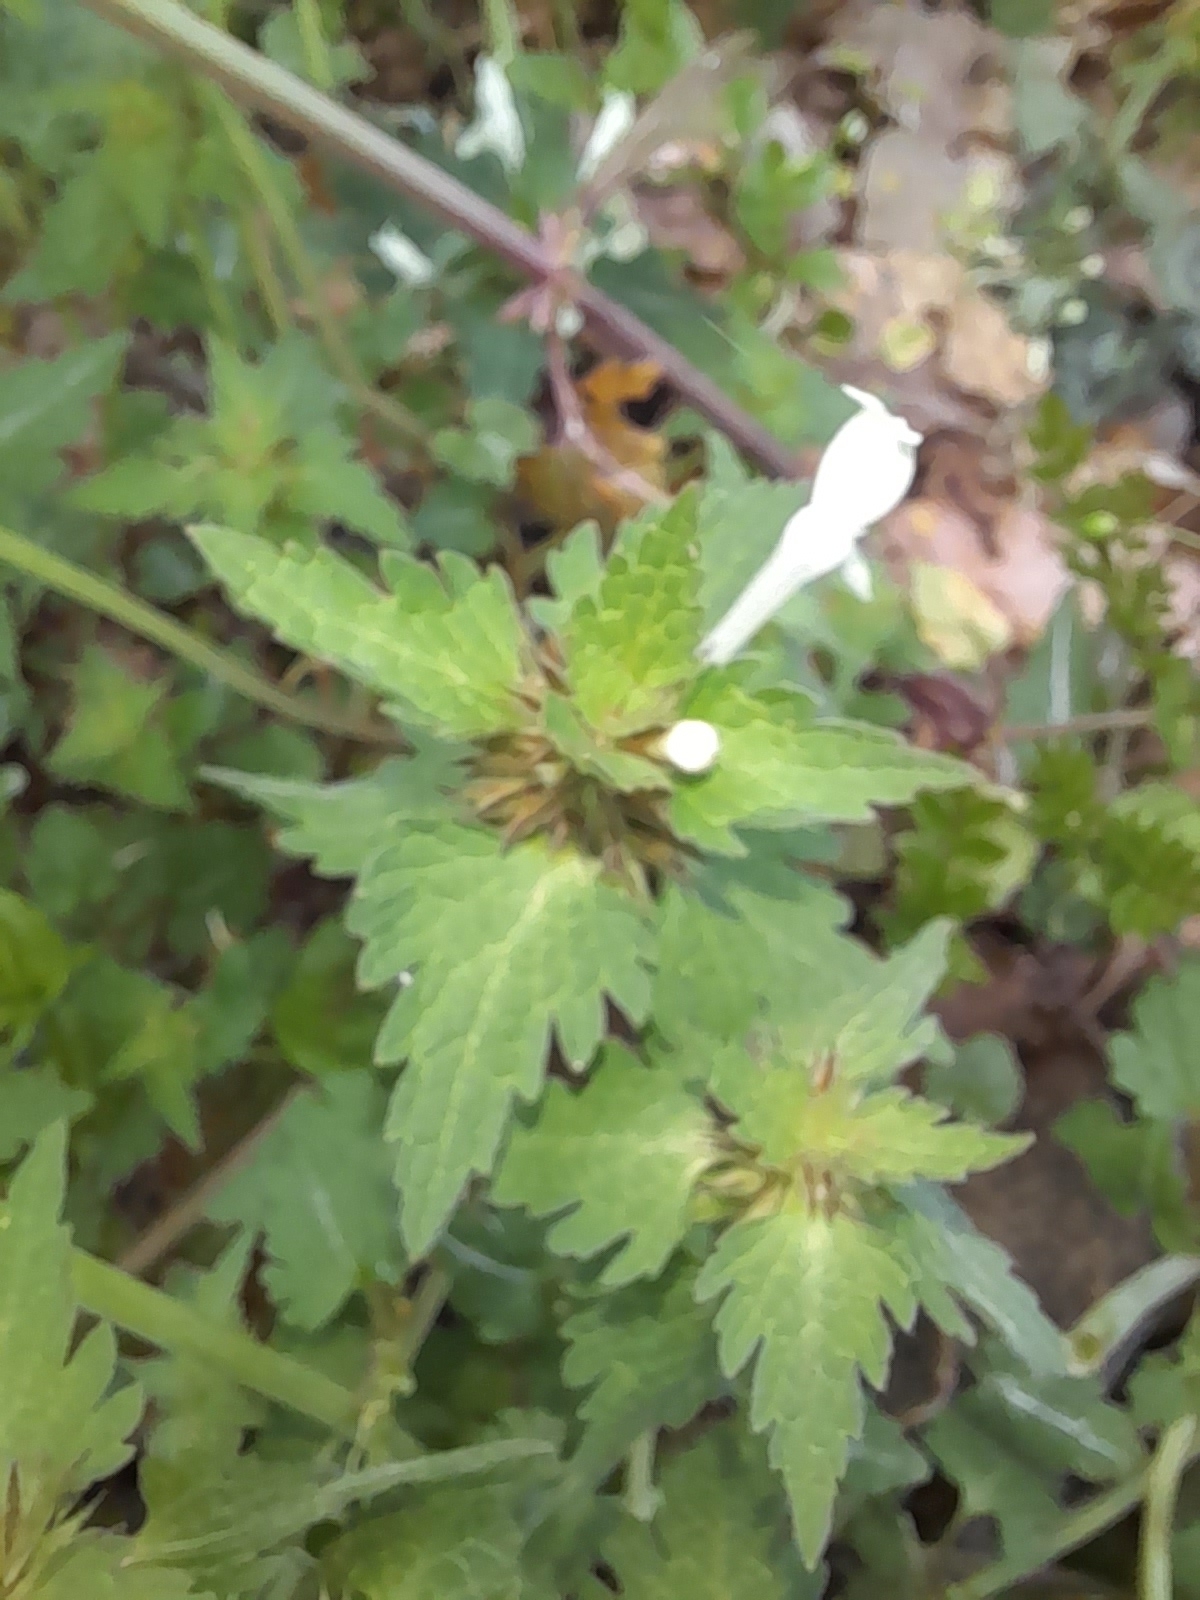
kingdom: Plantae
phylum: Tracheophyta
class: Magnoliopsida
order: Lamiales
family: Lamiaceae
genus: Lamium
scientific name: Lamium bifidum
